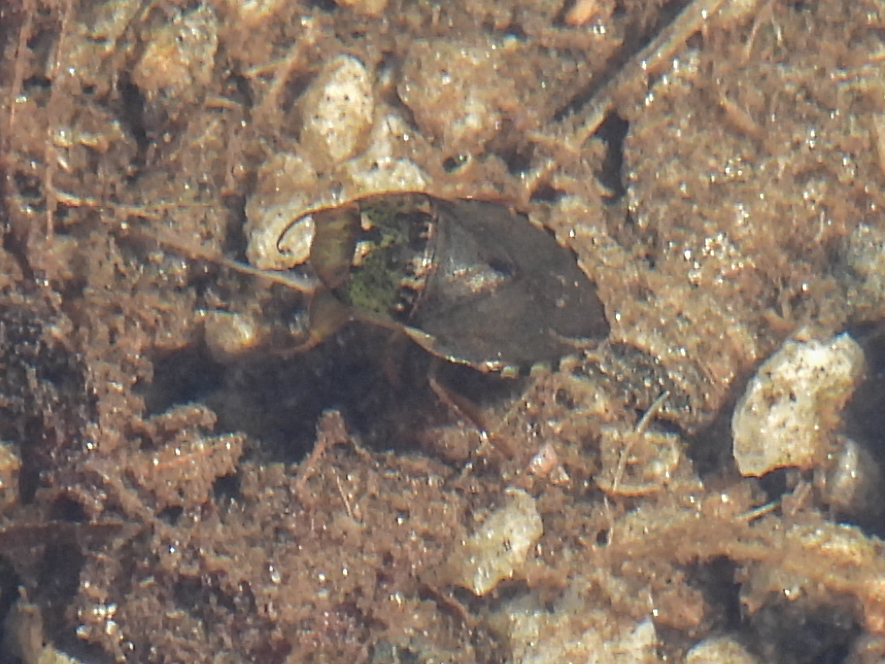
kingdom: Animalia
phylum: Arthropoda
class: Insecta
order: Hemiptera
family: Naucoridae
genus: Pelocoris
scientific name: Pelocoris femoratus
